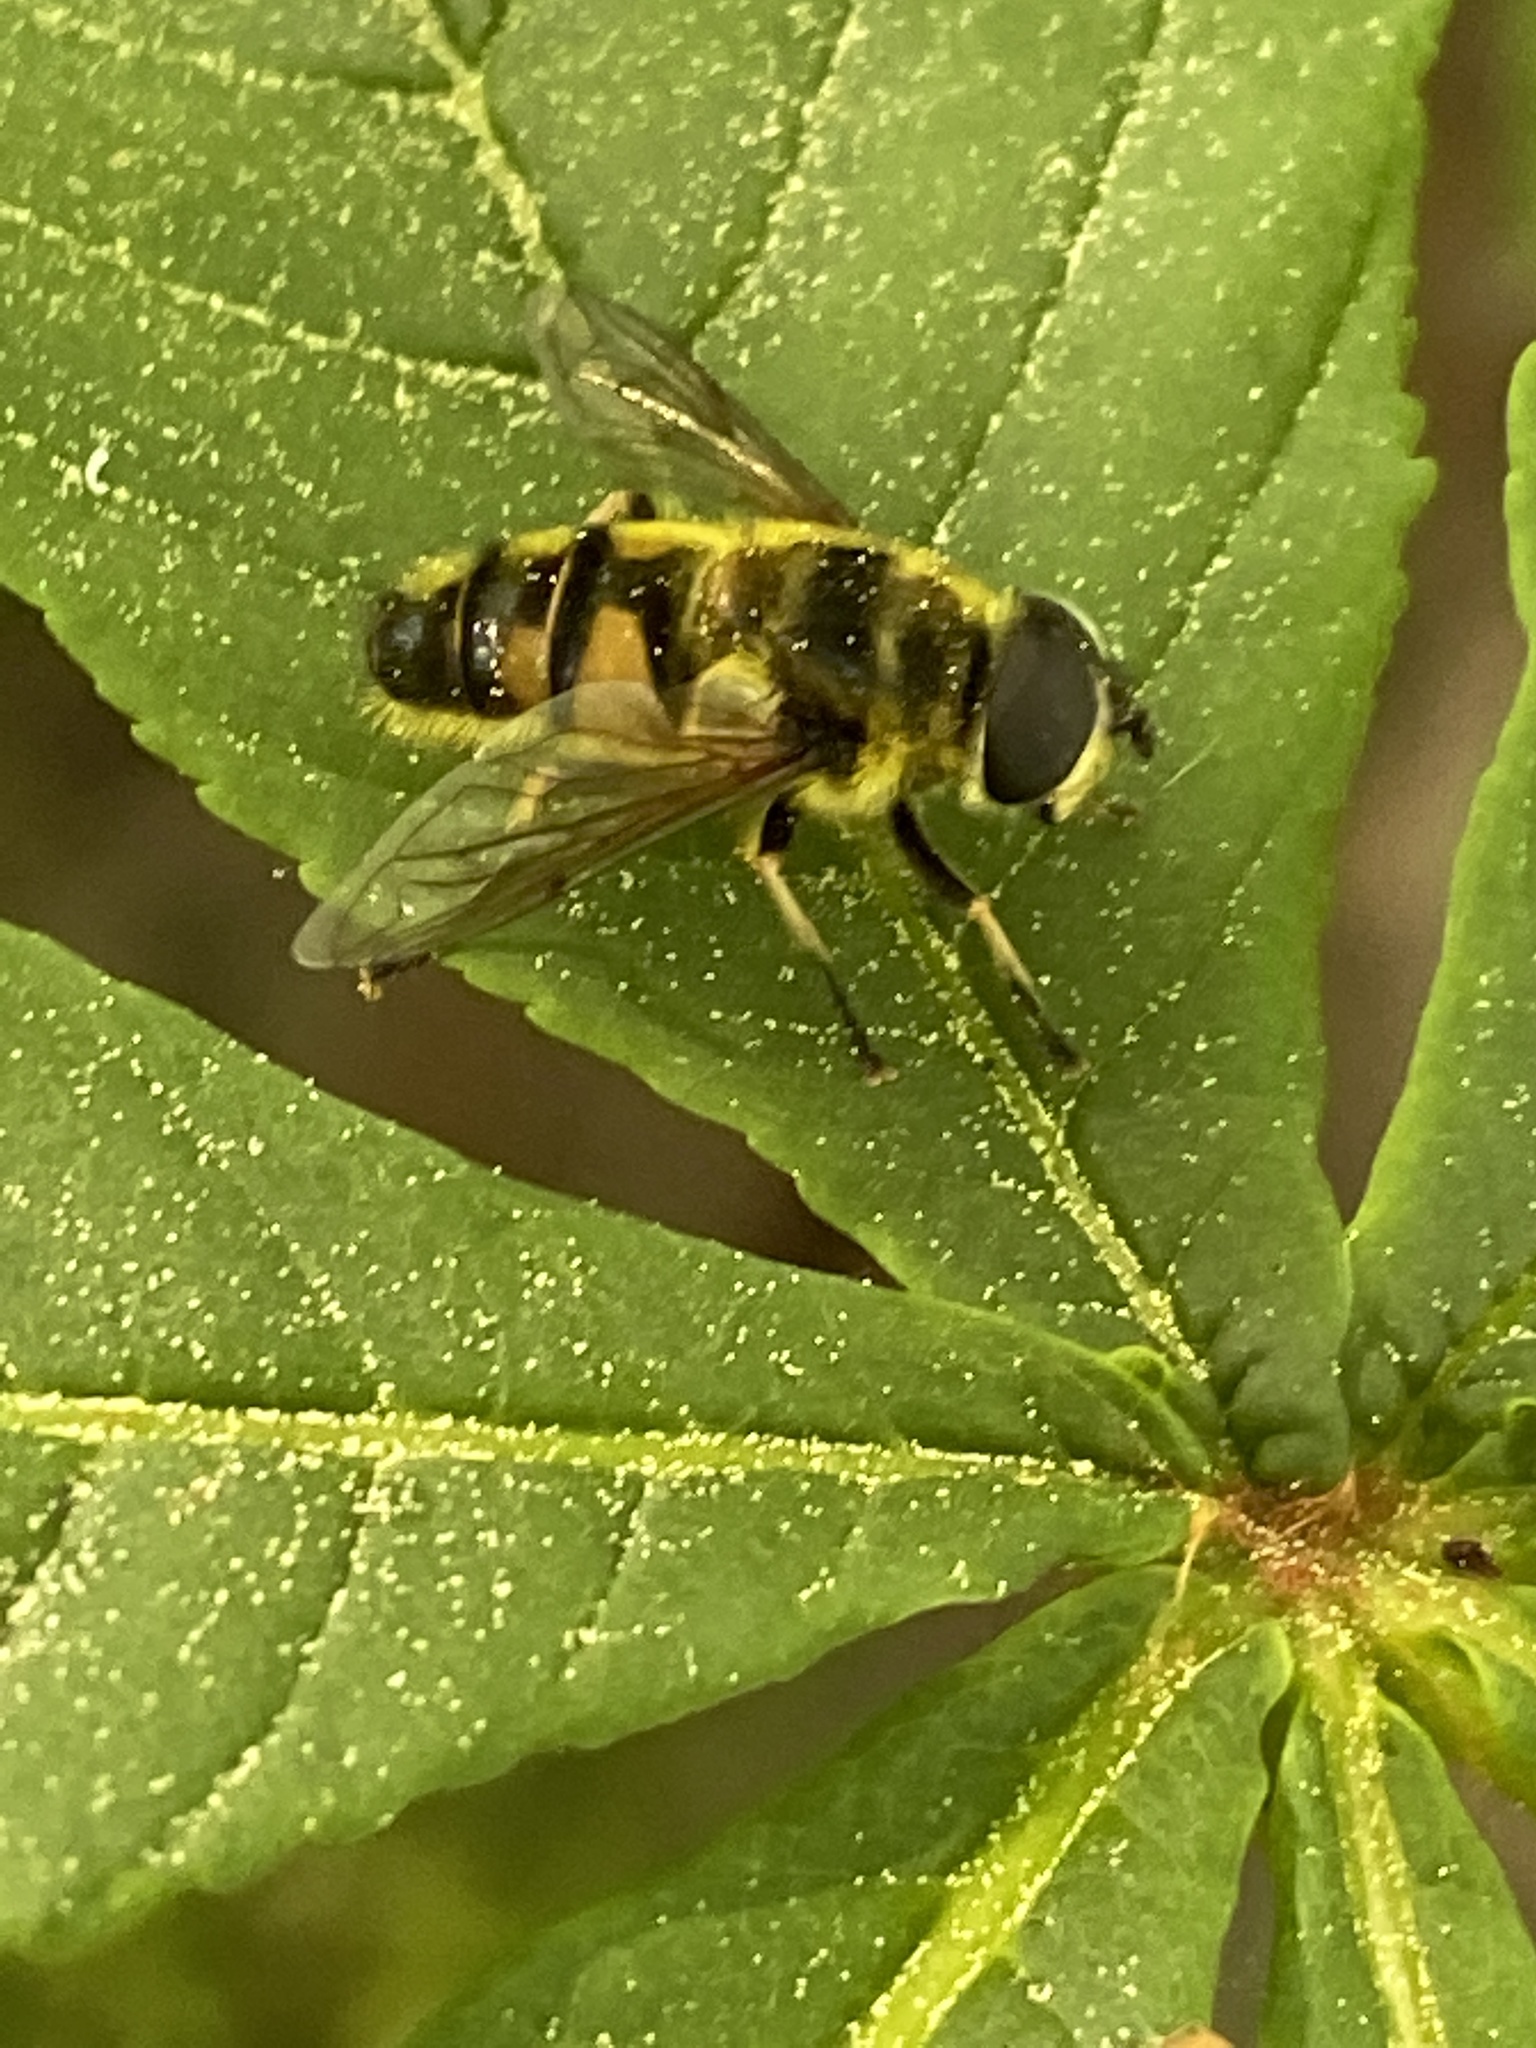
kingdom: Animalia
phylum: Arthropoda
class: Insecta
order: Diptera
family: Syrphidae
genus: Myathropa
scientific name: Myathropa florea
